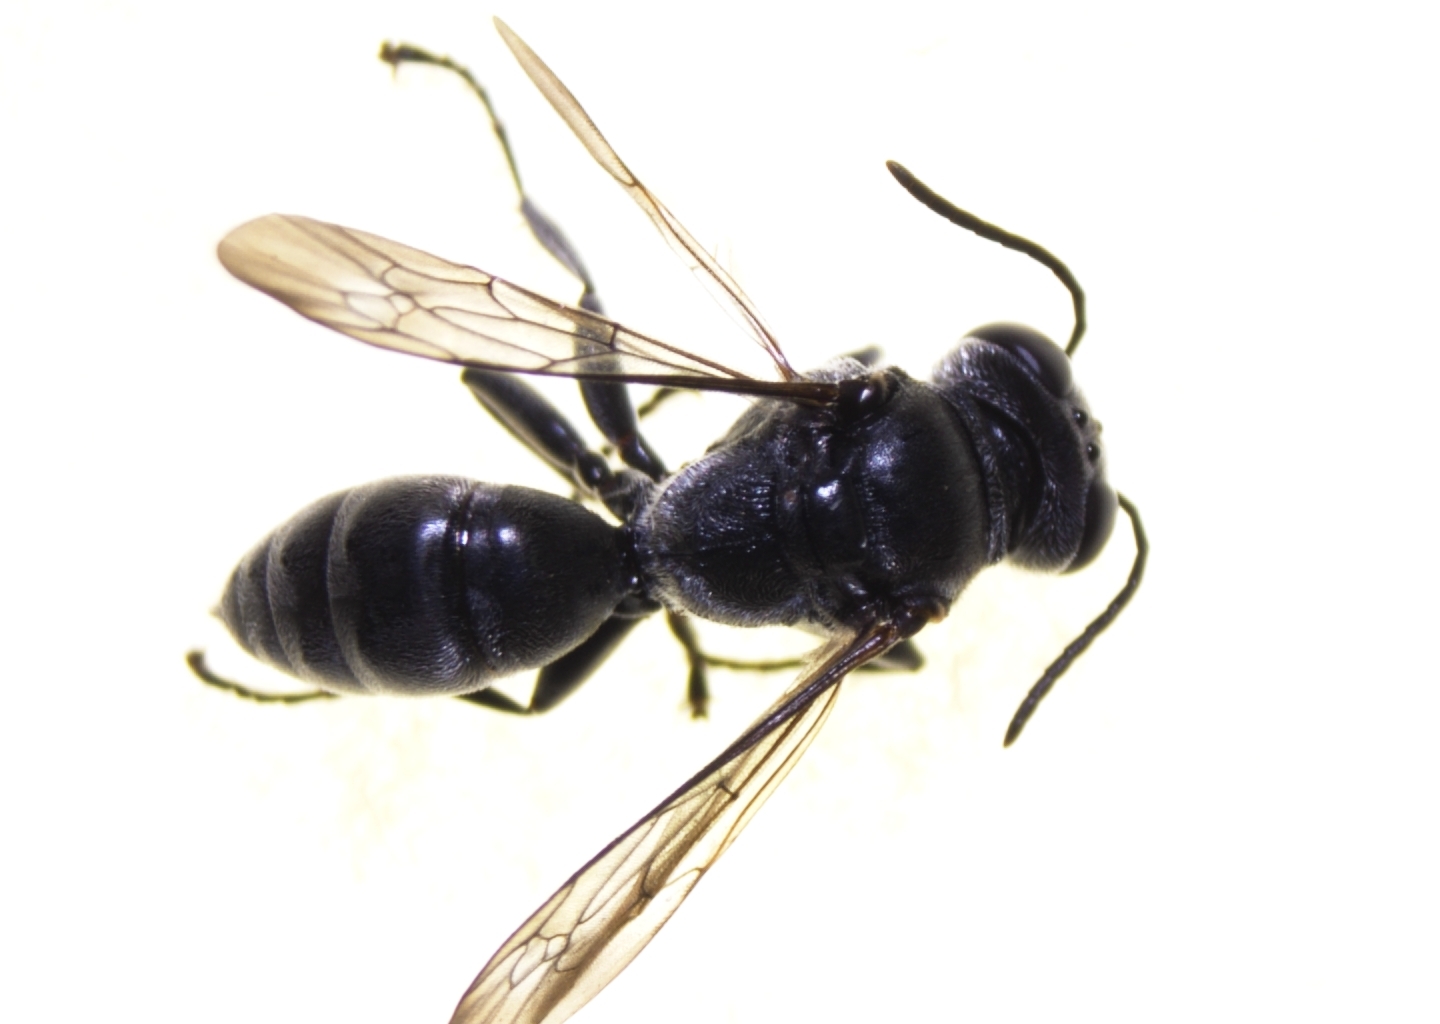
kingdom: Animalia
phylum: Arthropoda
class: Insecta
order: Hymenoptera
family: Crabronidae
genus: Tachysphex
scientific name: Tachysphex fanuiensis
